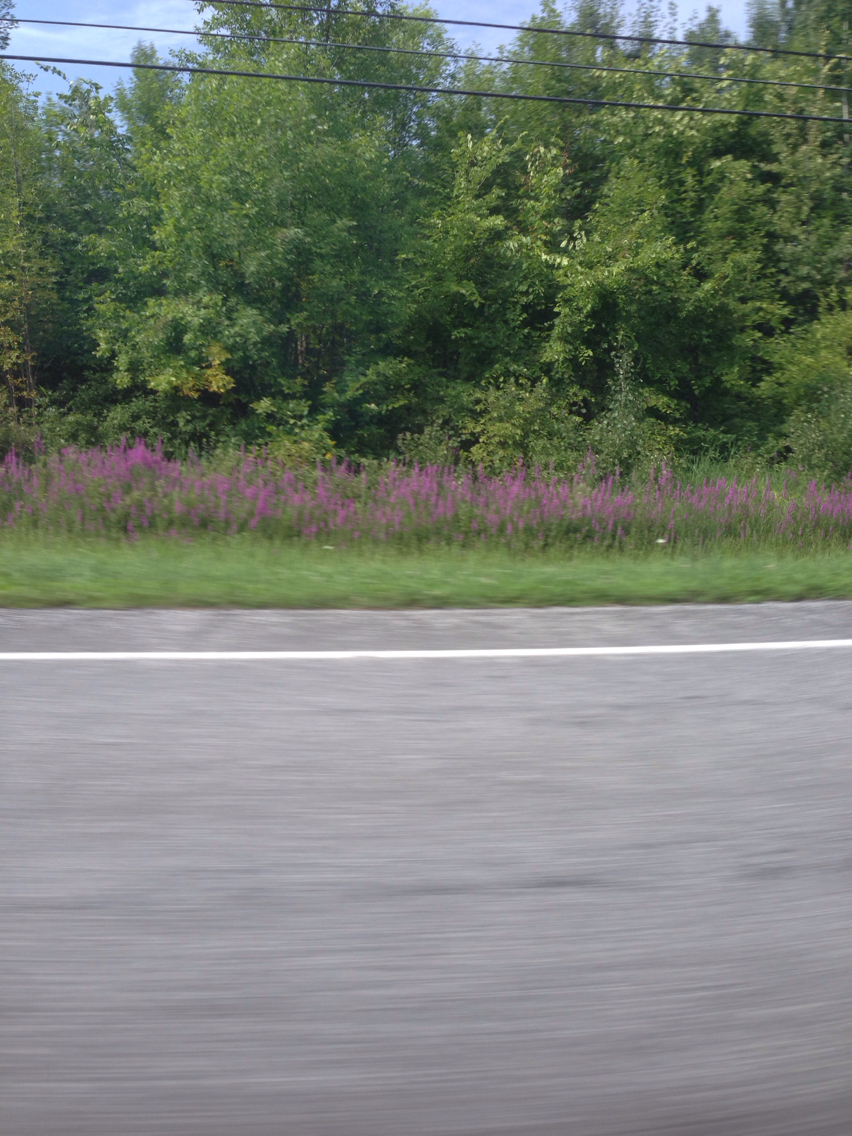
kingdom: Plantae
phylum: Tracheophyta
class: Magnoliopsida
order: Myrtales
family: Lythraceae
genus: Lythrum
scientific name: Lythrum salicaria
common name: Purple loosestrife
